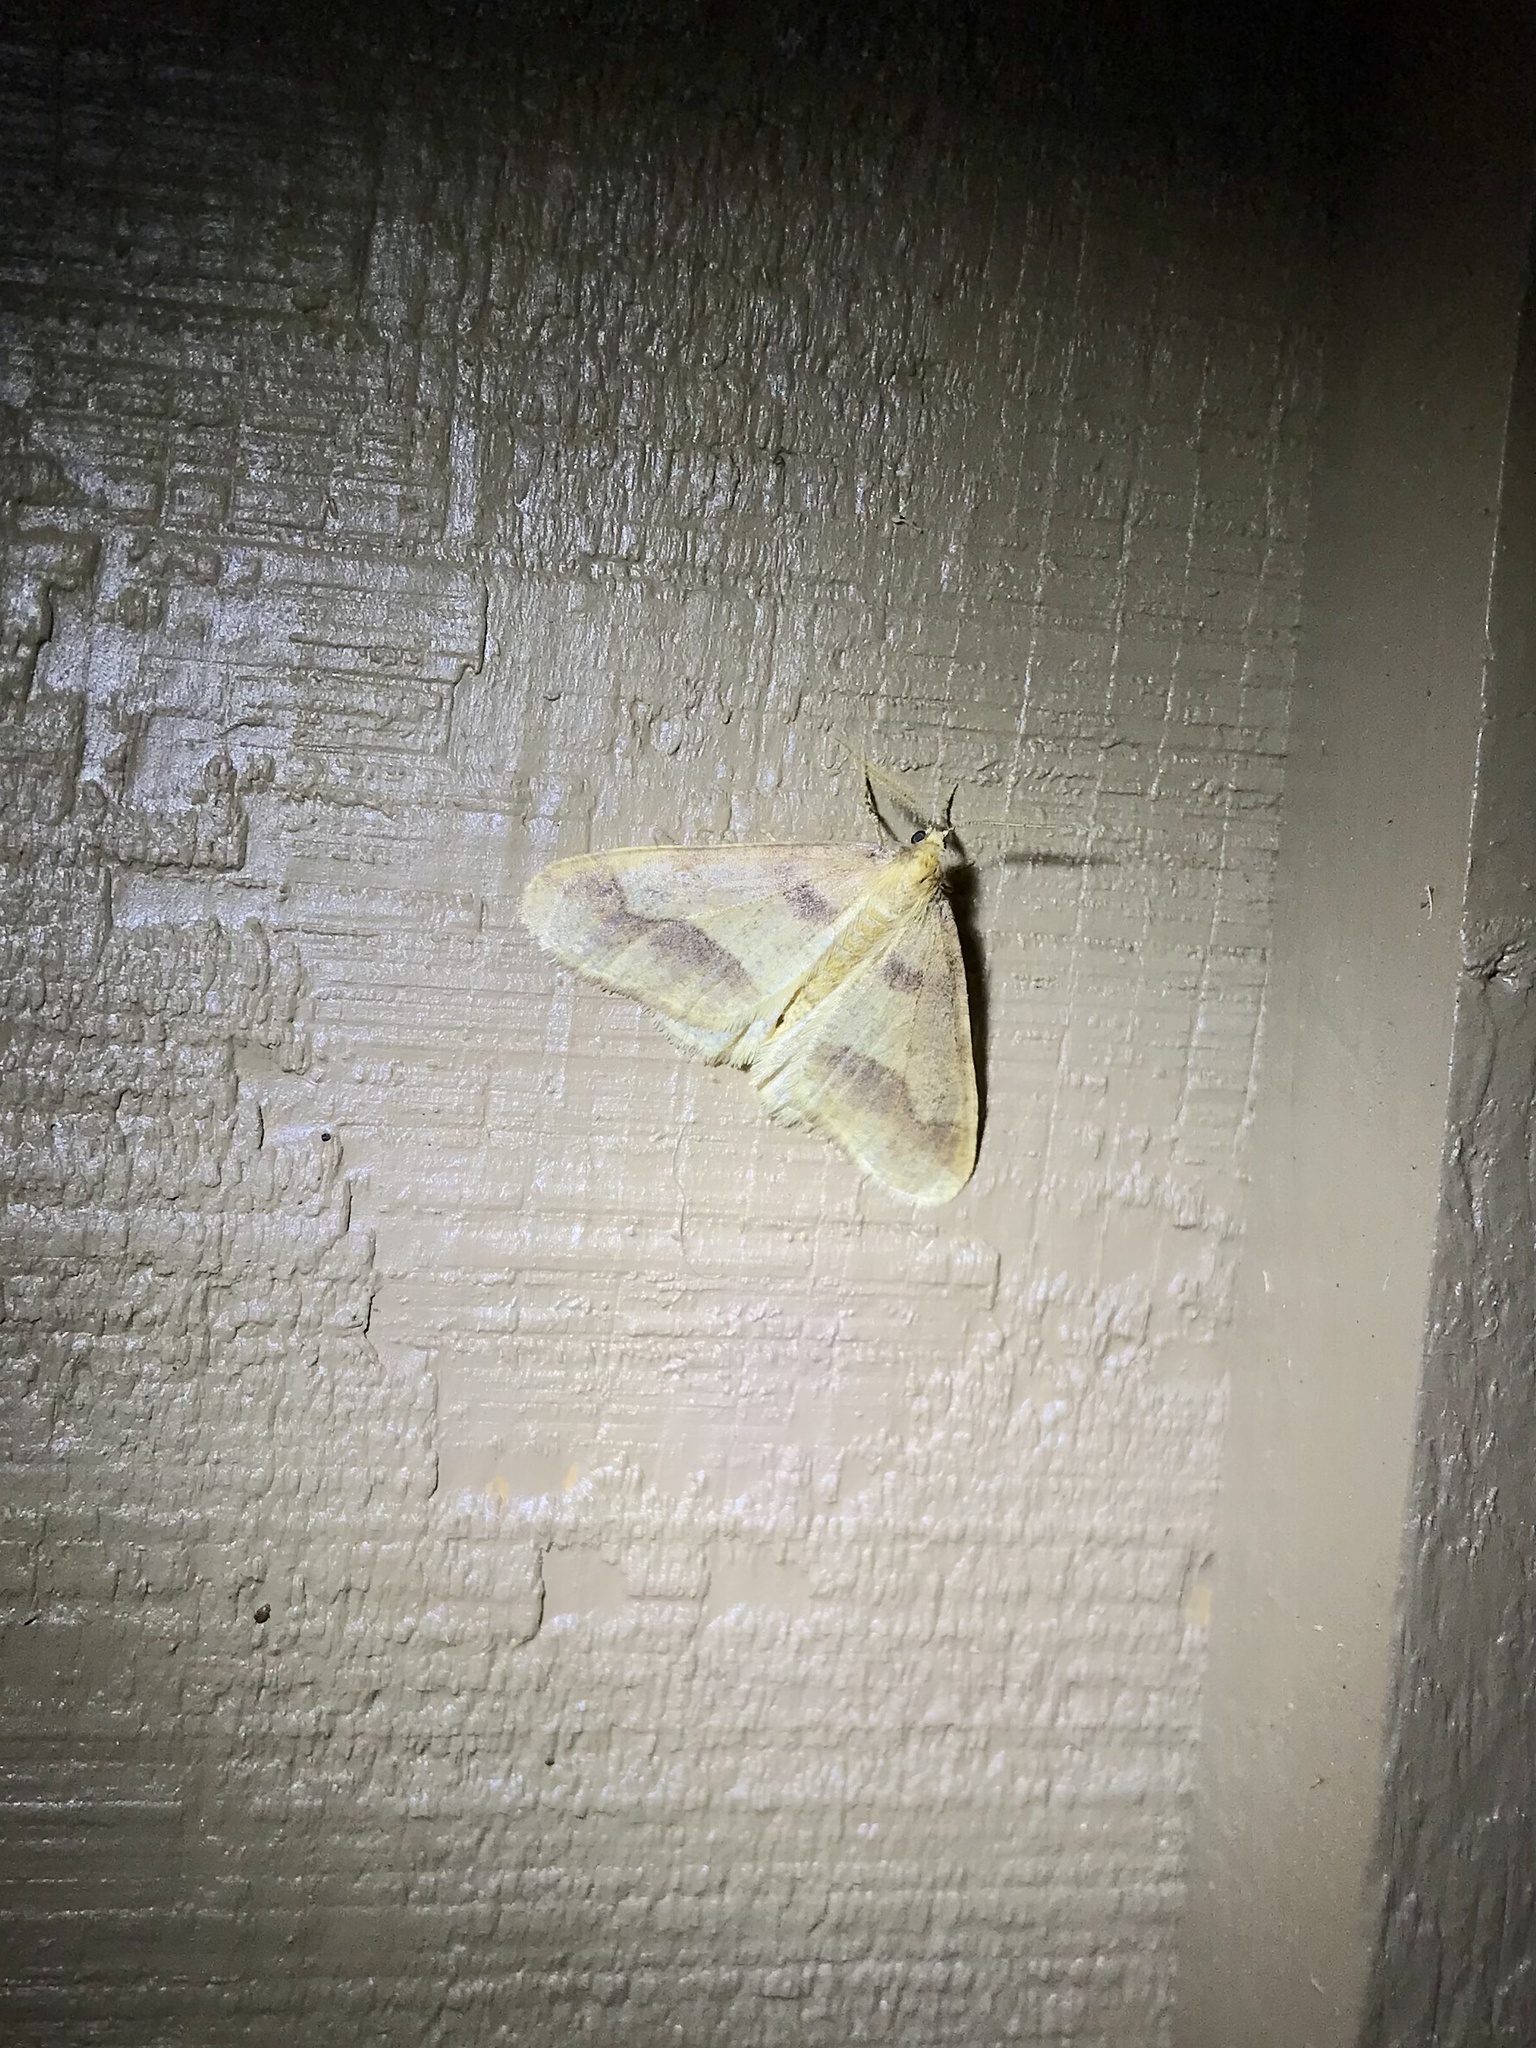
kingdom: Animalia
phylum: Arthropoda
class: Insecta
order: Lepidoptera
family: Geometridae
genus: Erannis
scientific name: Erannis tiliaria
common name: Linden looper
